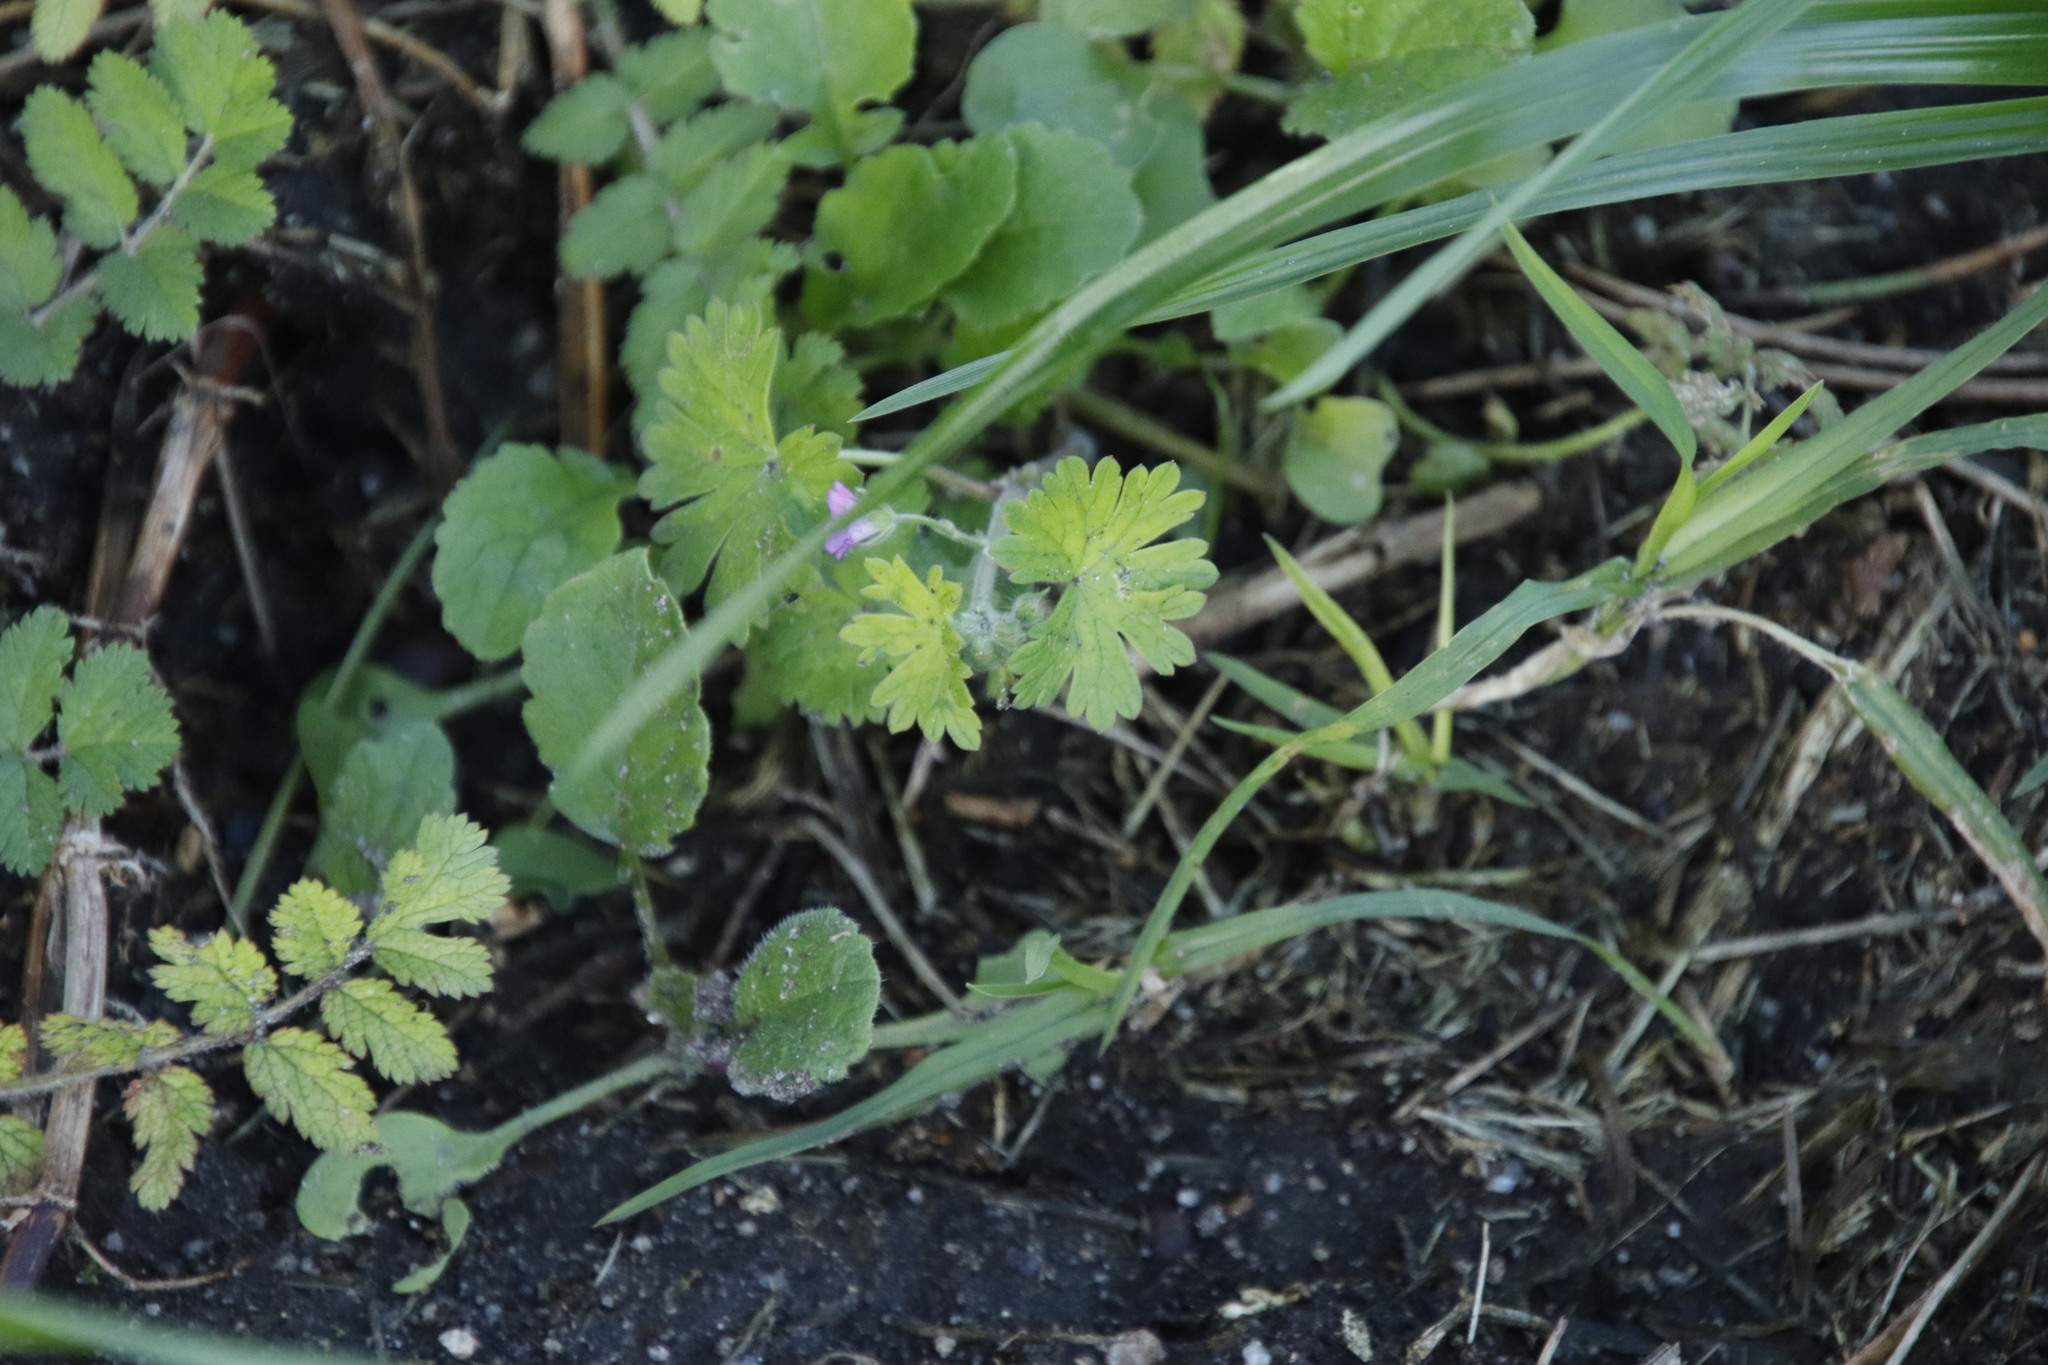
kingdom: Plantae
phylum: Tracheophyta
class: Magnoliopsida
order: Geraniales
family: Geraniaceae
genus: Geranium
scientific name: Geranium molle
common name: Dove's-foot crane's-bill
